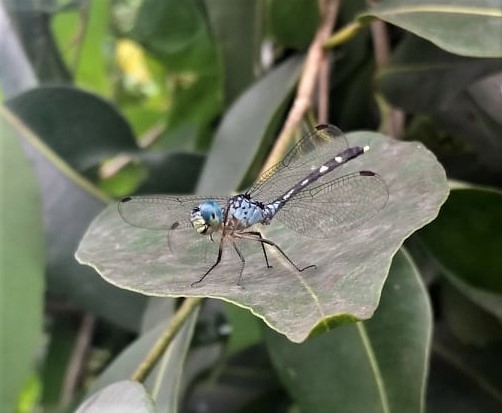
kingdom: Animalia
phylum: Arthropoda
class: Insecta
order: Odonata
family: Libellulidae
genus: Anatya
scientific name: Anatya guttata
